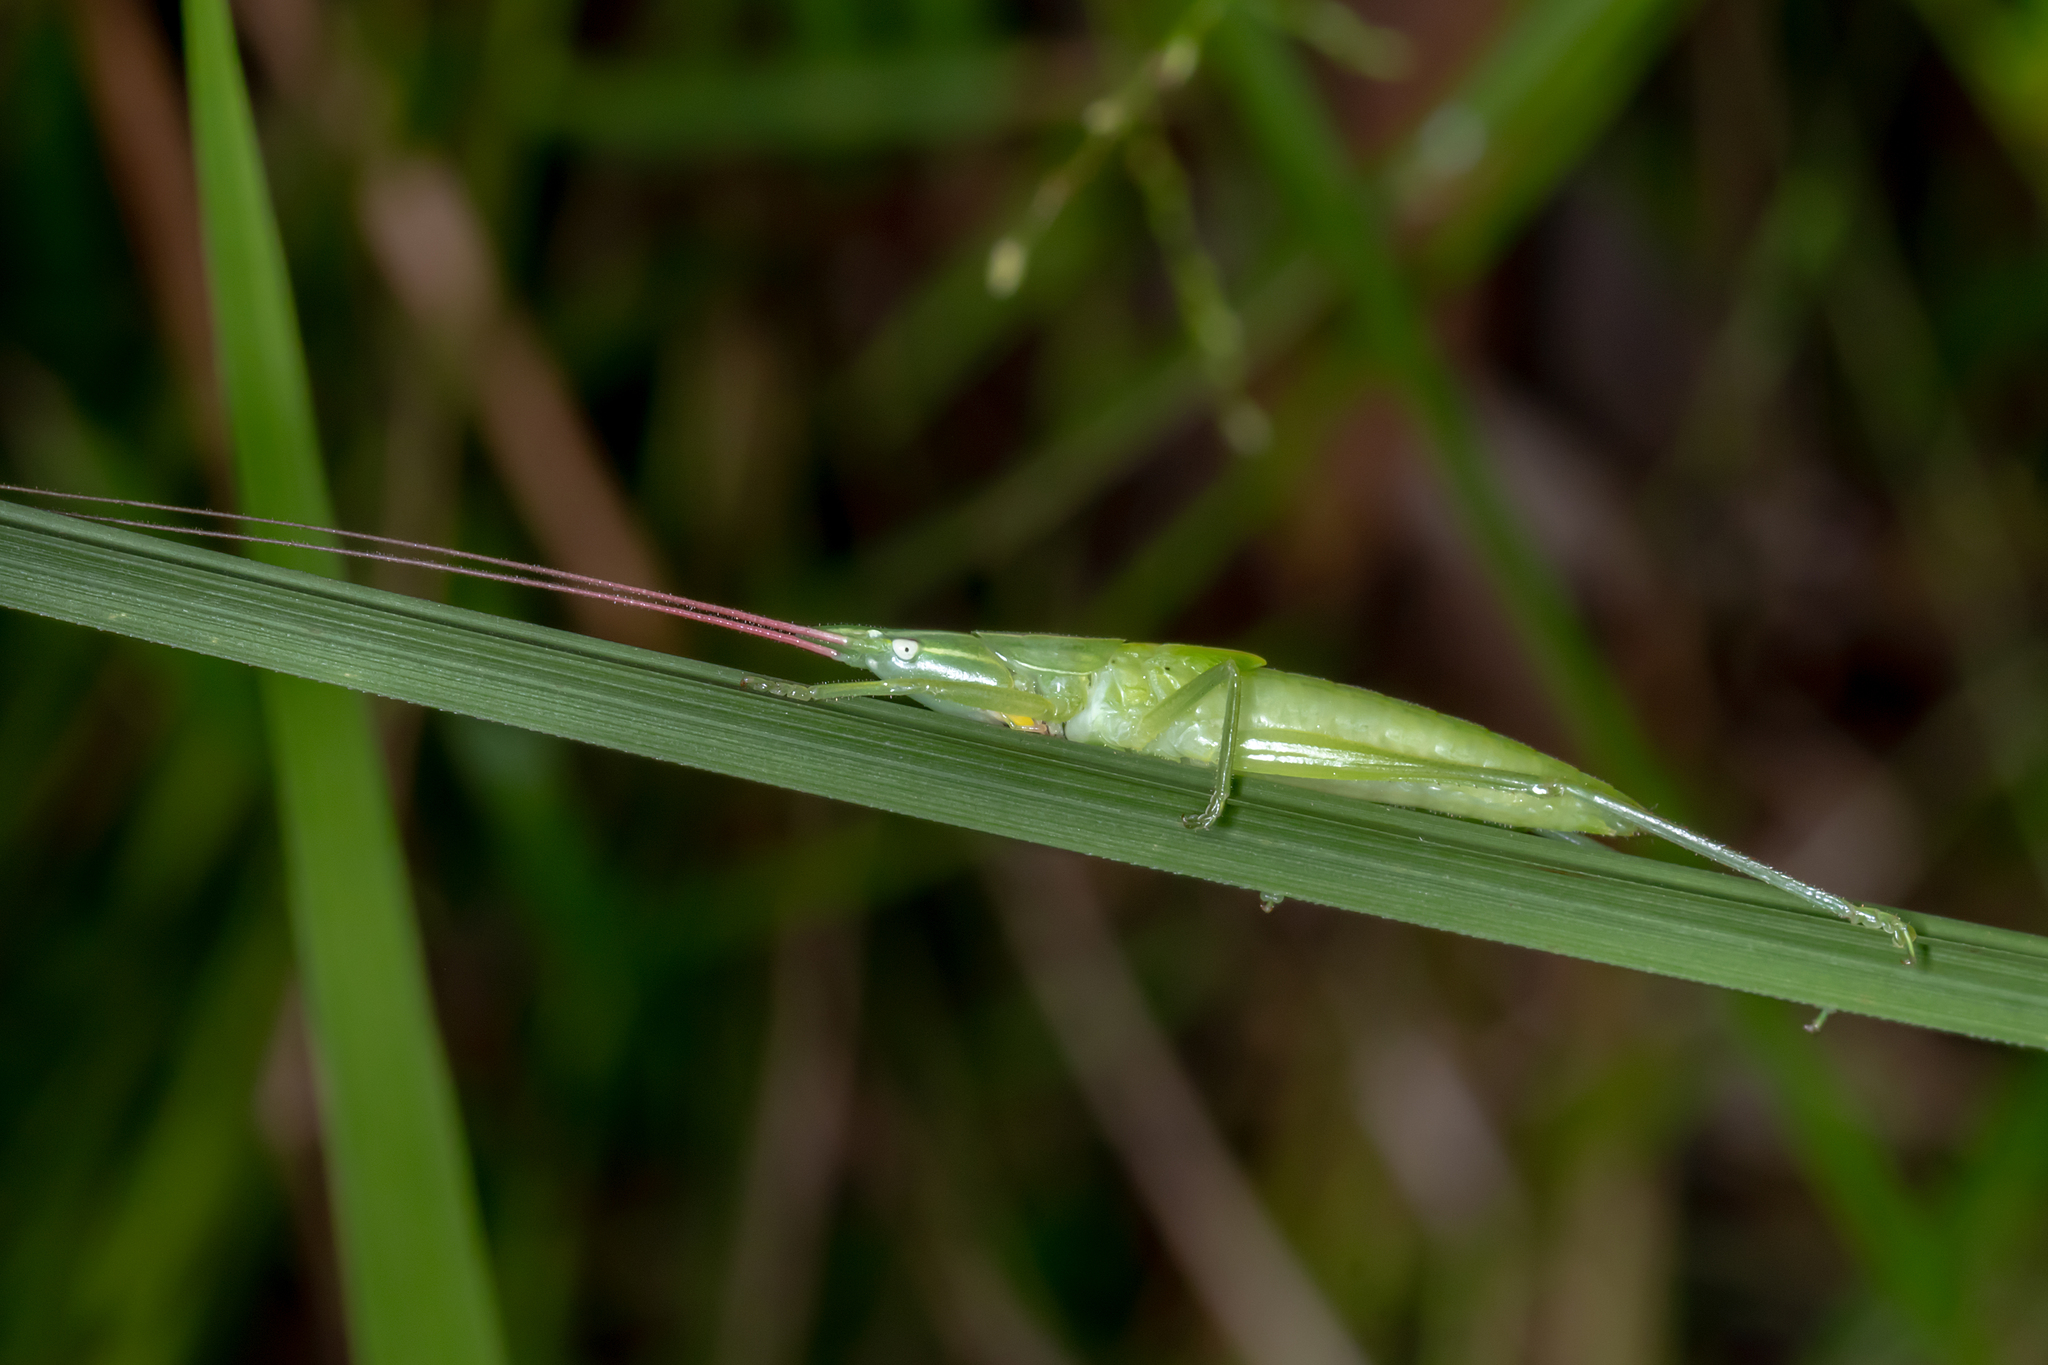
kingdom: Animalia
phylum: Arthropoda
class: Insecta
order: Orthoptera
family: Tettigoniidae
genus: Pseudorhynchus
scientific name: Pseudorhynchus lessonii
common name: Lesson's mimicking snout nose
